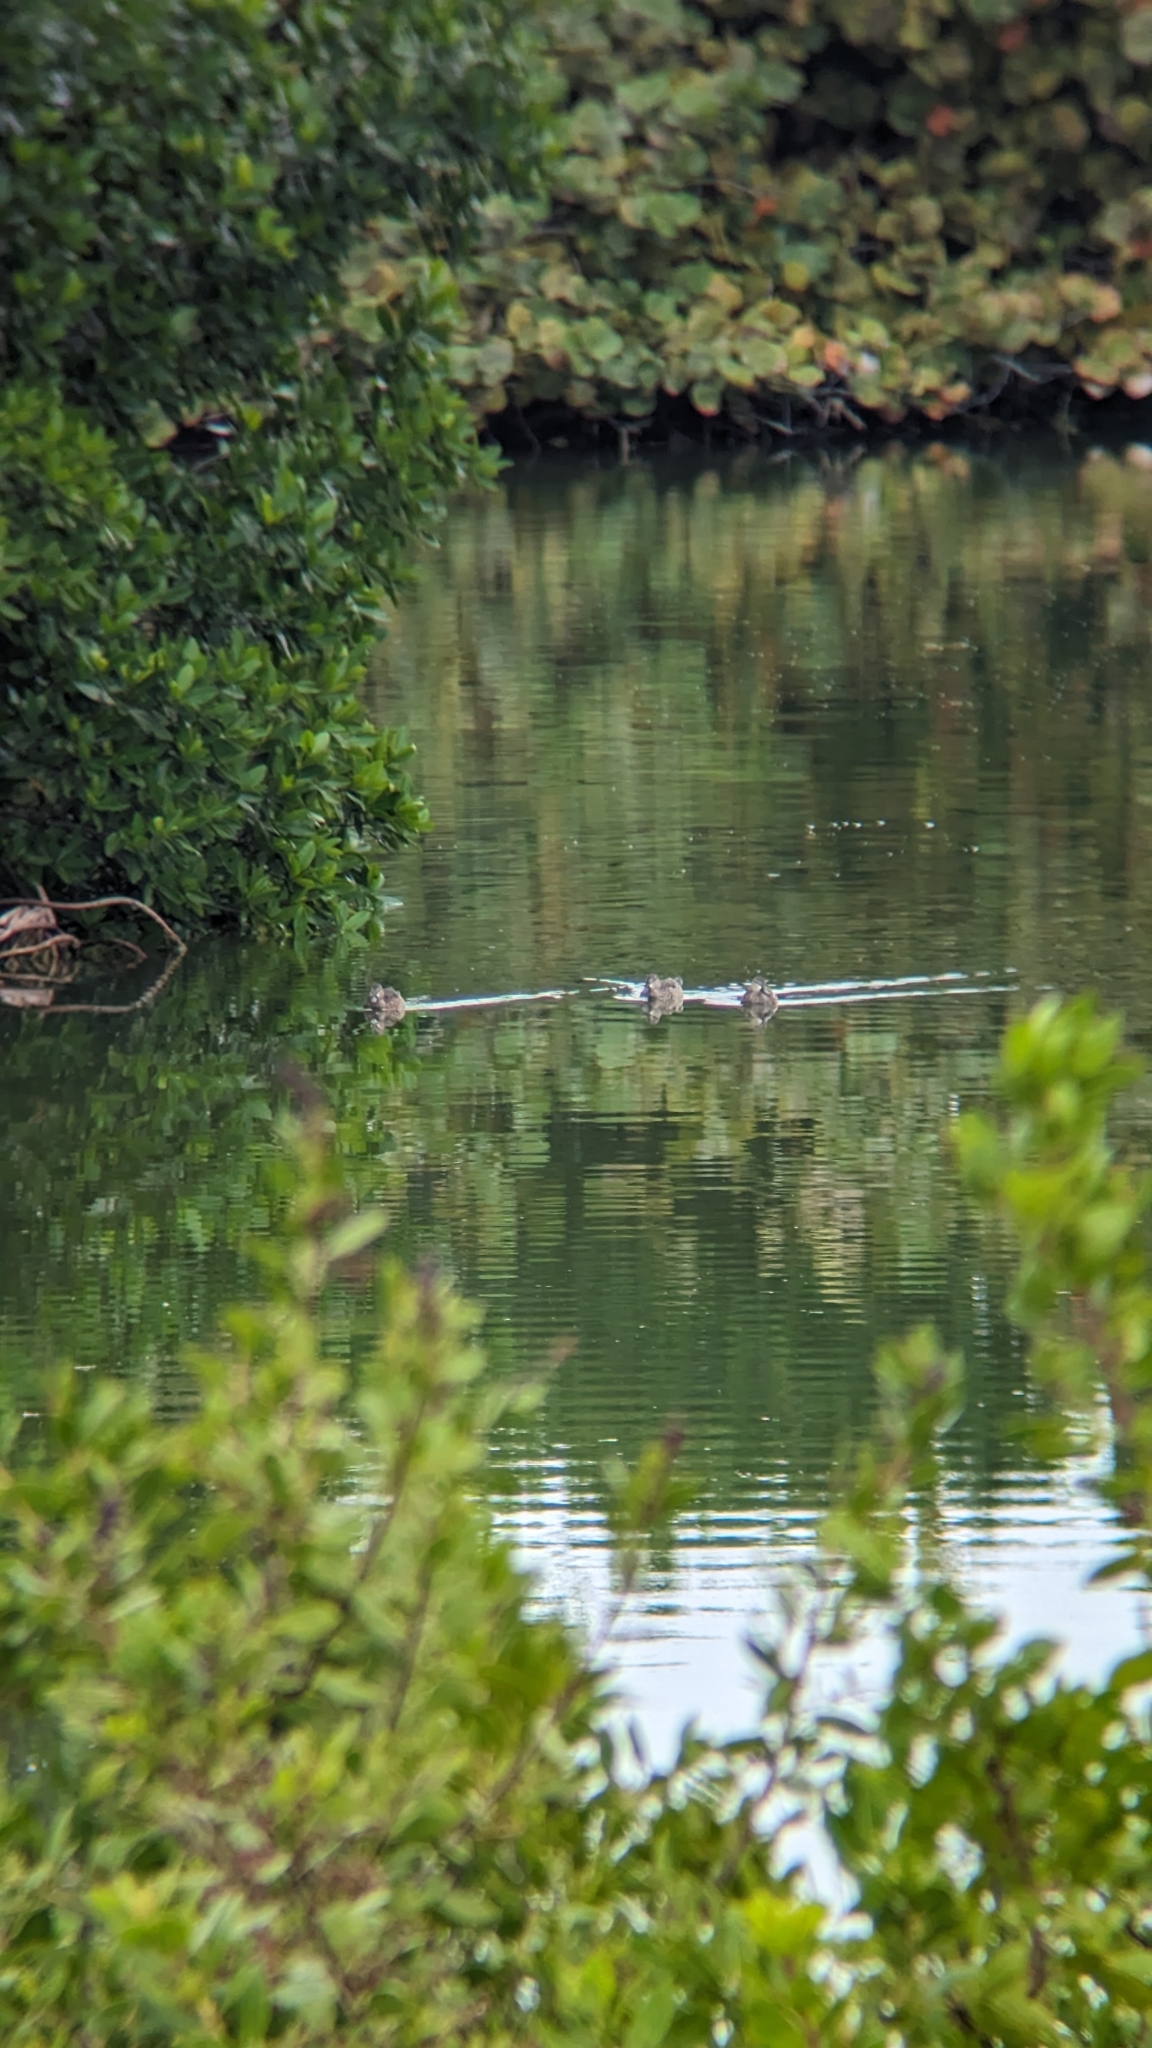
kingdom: Animalia
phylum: Chordata
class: Aves
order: Anseriformes
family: Anatidae
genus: Spatula
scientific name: Spatula discors
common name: Blue-winged teal
